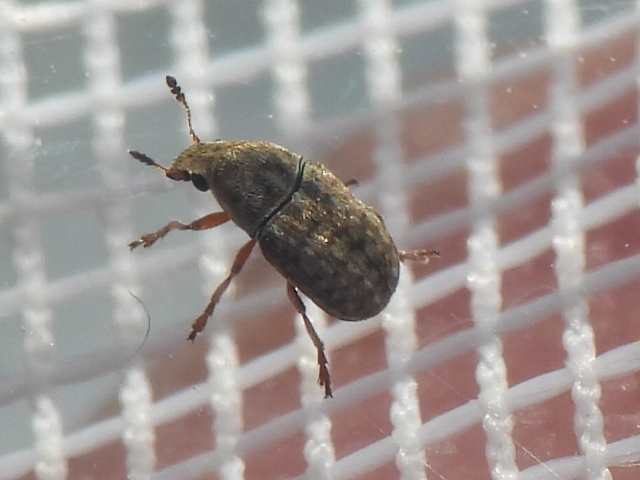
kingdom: Animalia
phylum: Arthropoda
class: Insecta
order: Coleoptera
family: Anthribidae
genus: Trigonorhinus
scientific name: Trigonorhinus limbatus
